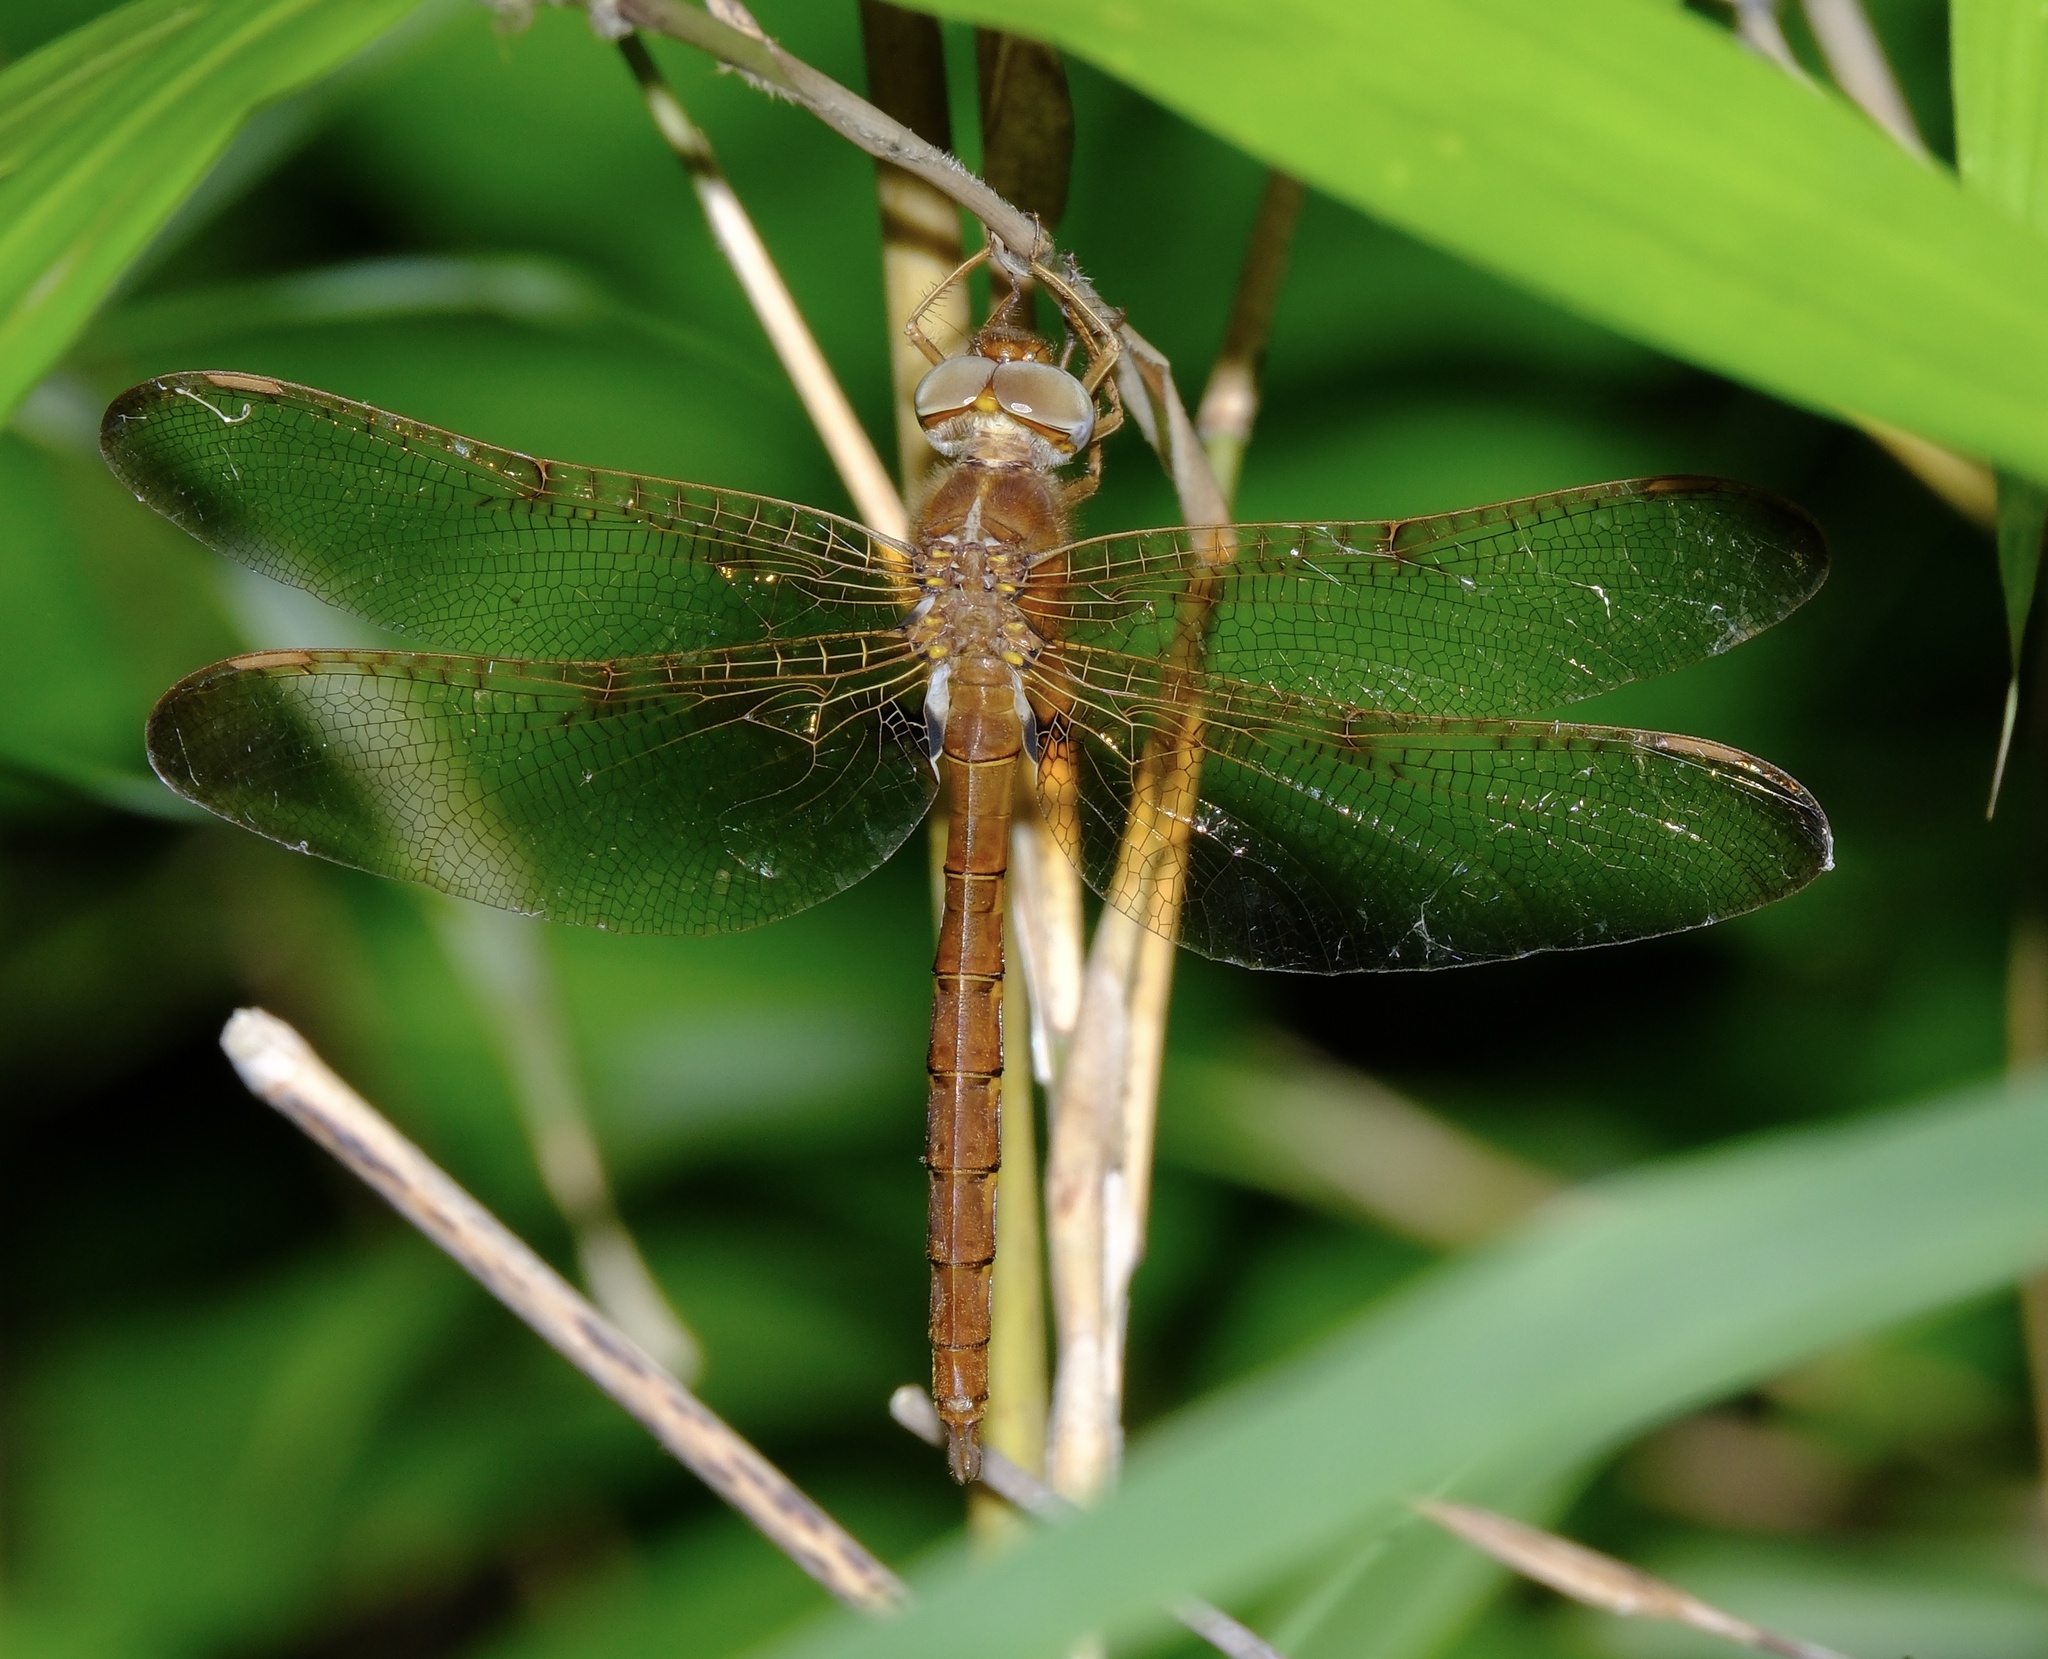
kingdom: Animalia
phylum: Arthropoda
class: Insecta
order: Odonata
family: Corduliidae
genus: Neurocordulia
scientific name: Neurocordulia xanthosoma
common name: Orange shadowdragon
